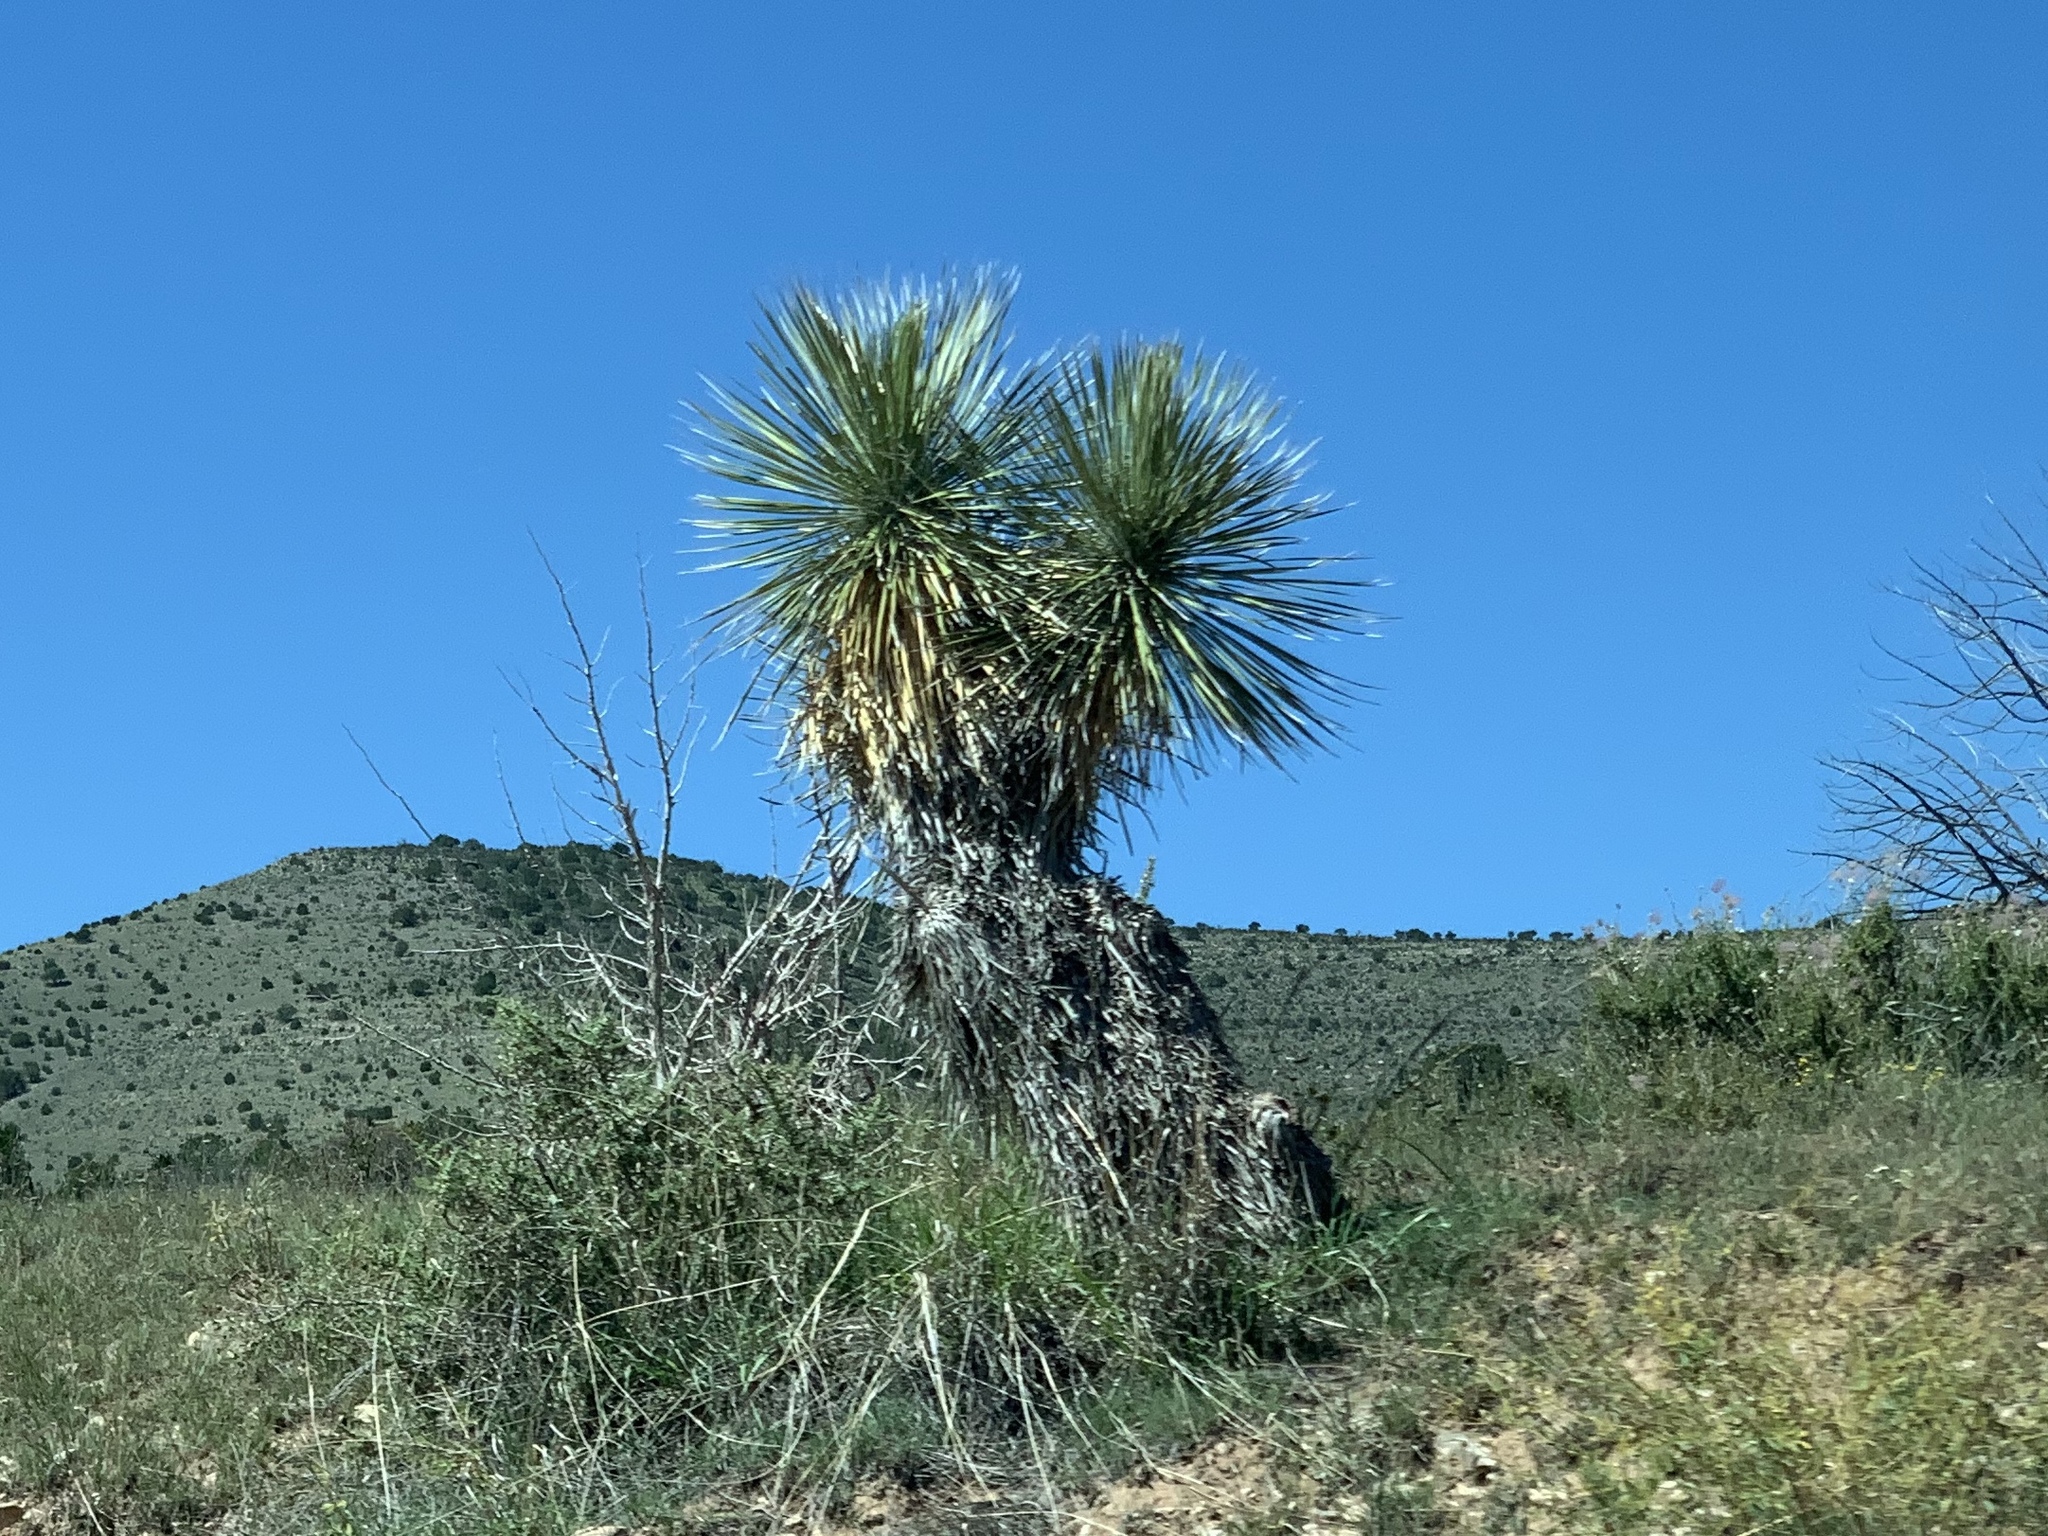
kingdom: Plantae
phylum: Tracheophyta
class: Liliopsida
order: Asparagales
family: Asparagaceae
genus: Yucca
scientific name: Yucca elata
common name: Palmella
